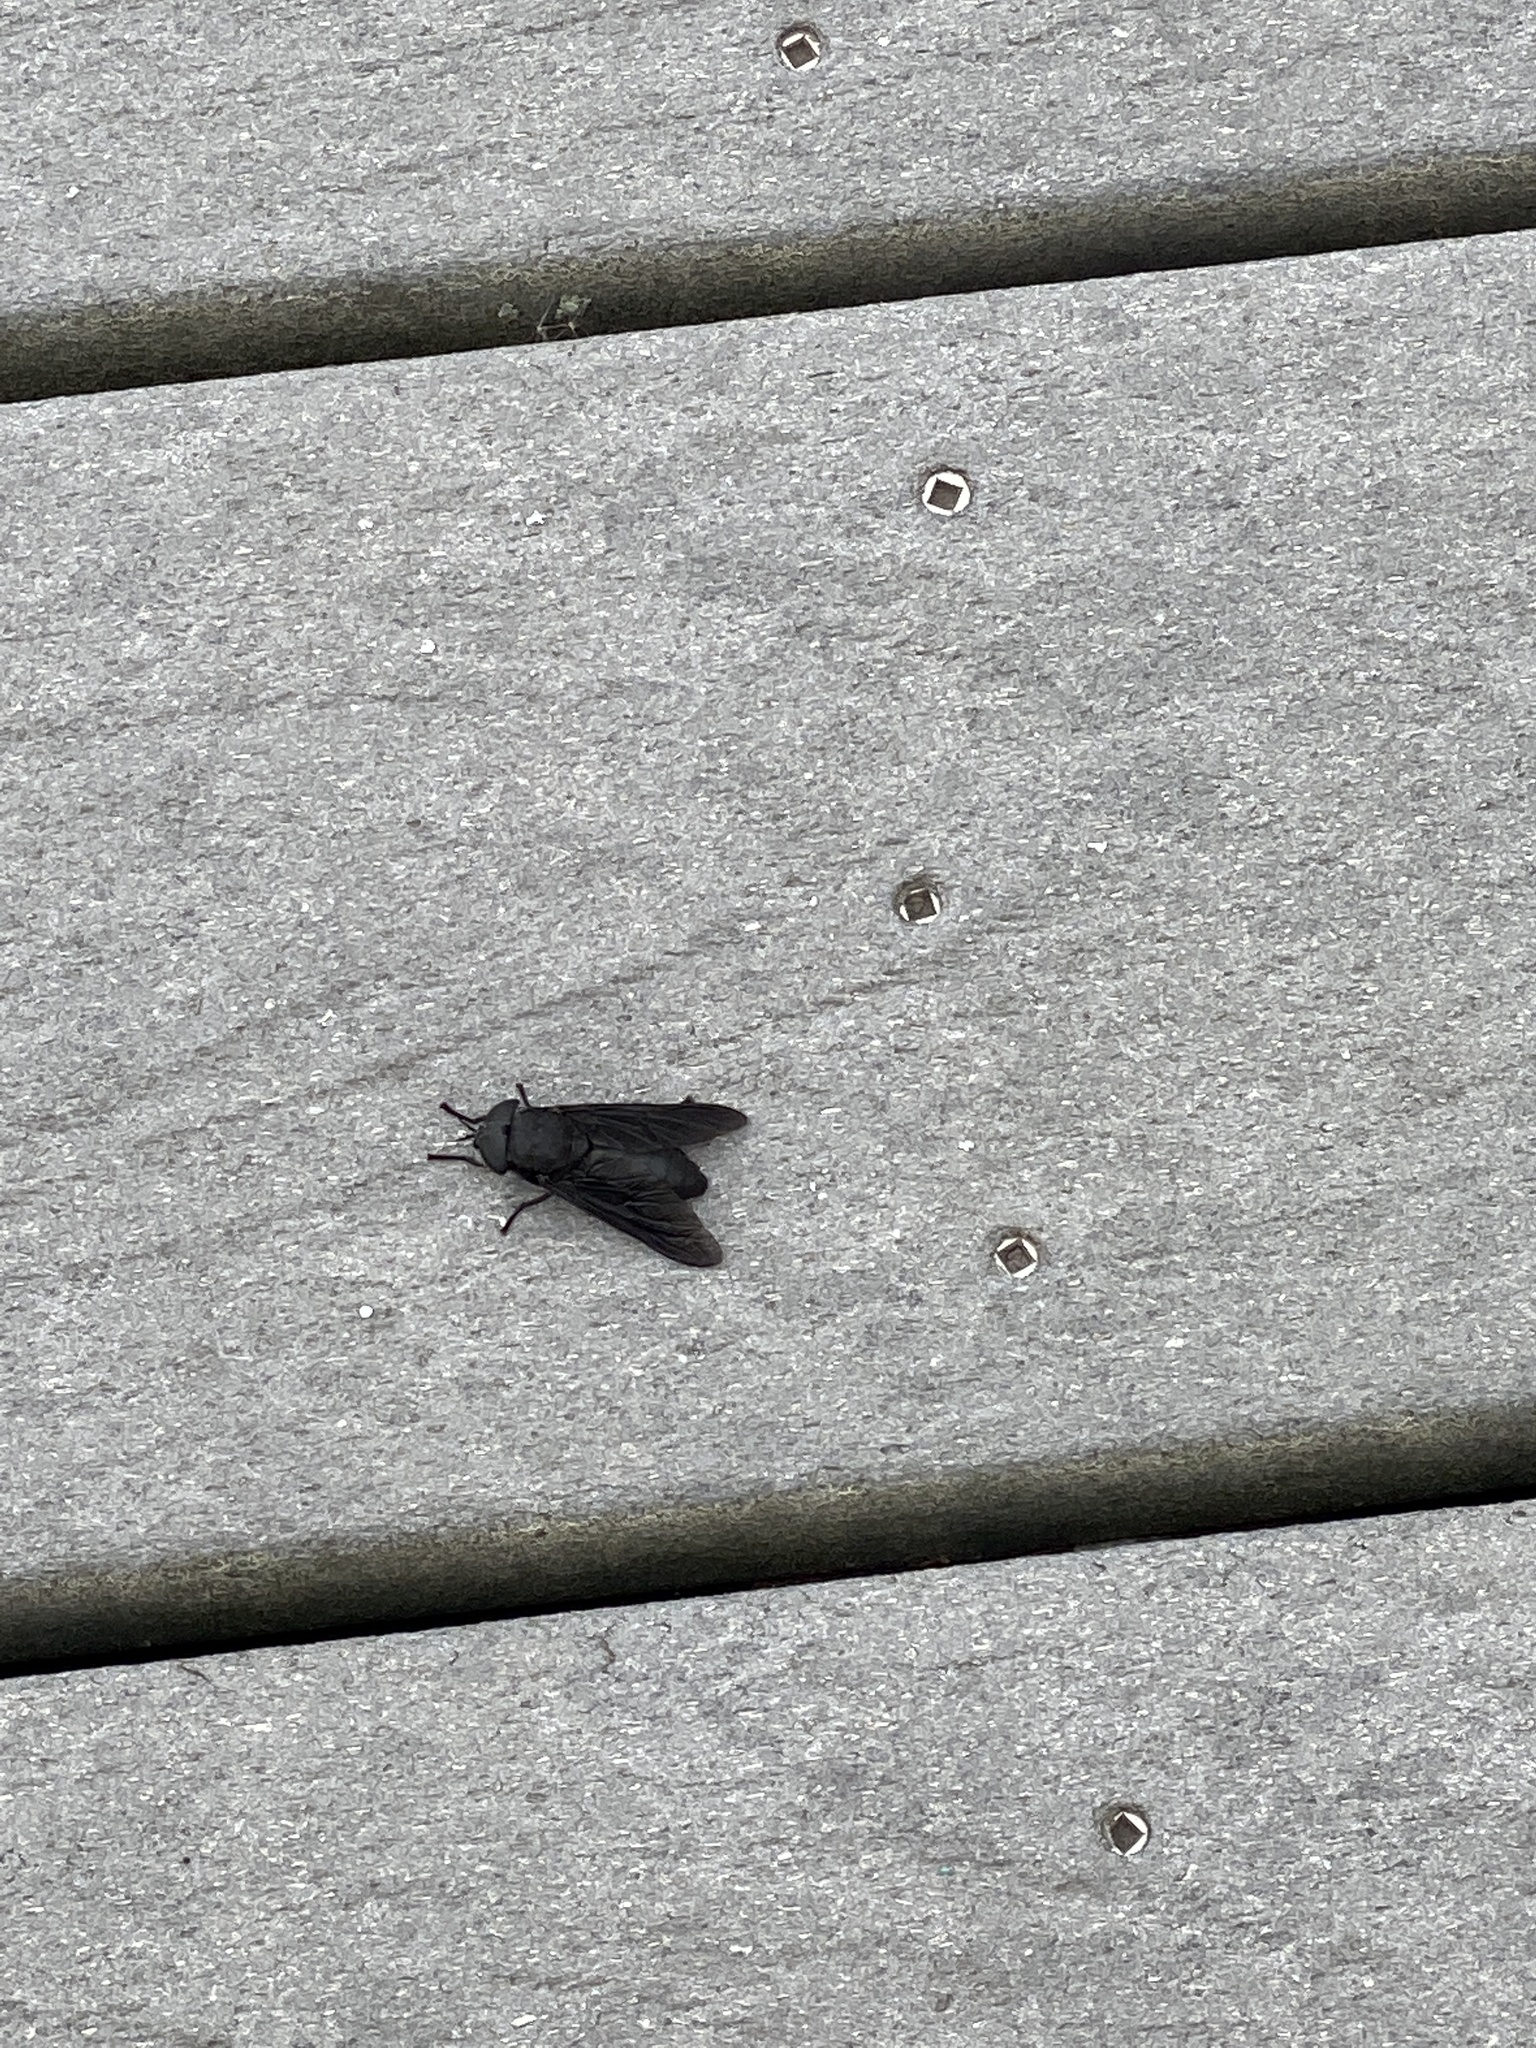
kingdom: Animalia
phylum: Arthropoda
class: Insecta
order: Diptera
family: Tabanidae
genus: Tabanus
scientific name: Tabanus atratus
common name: Black horse fly
